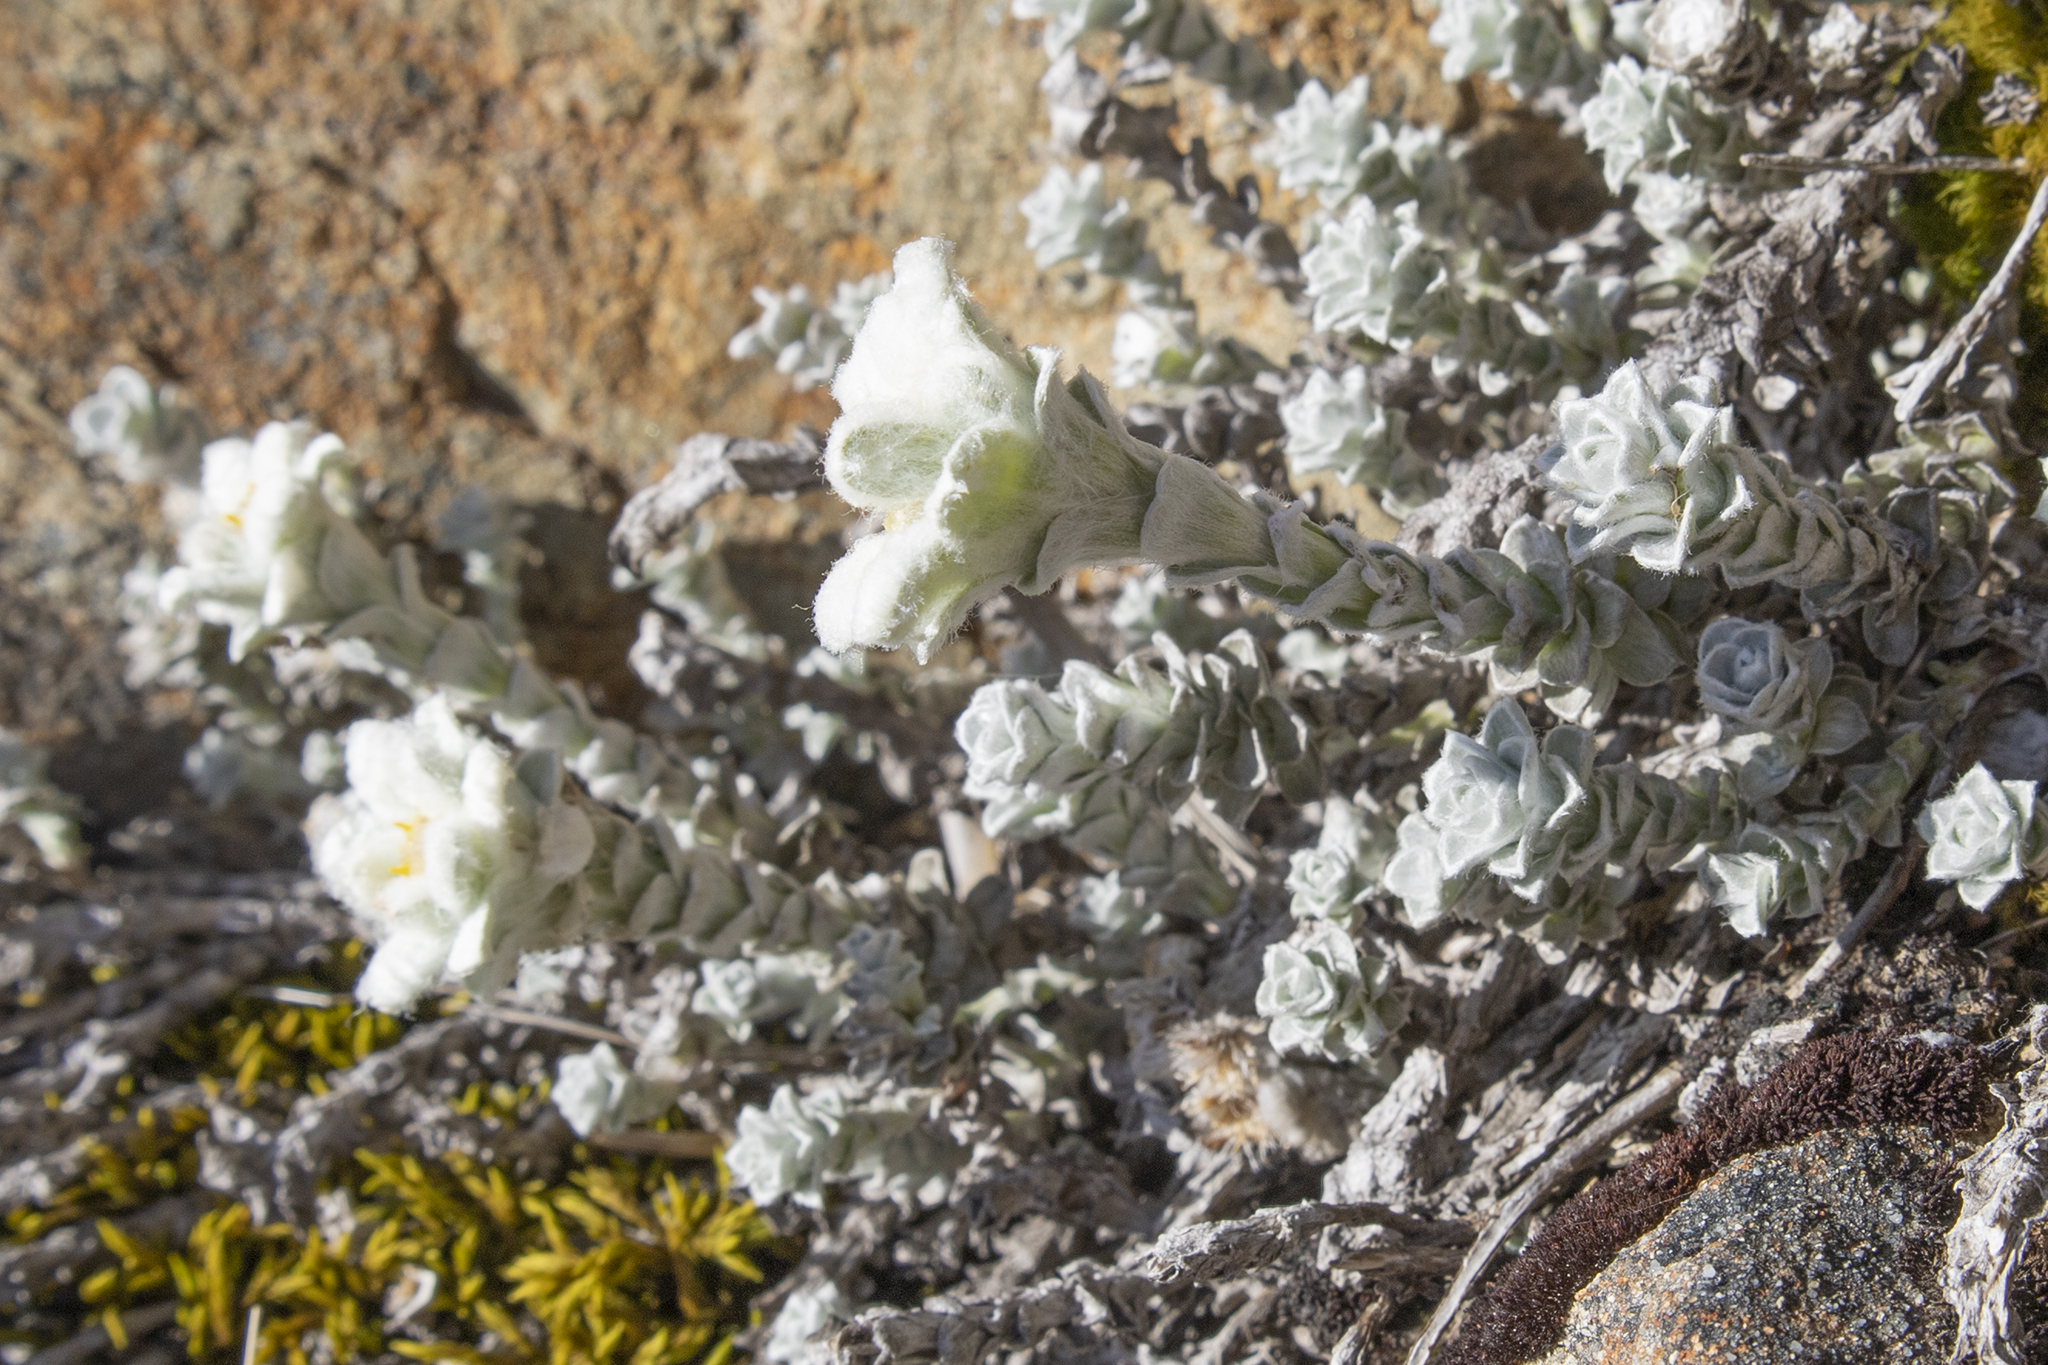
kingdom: Plantae
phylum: Tracheophyta
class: Magnoliopsida
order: Asterales
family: Asteraceae
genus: Leucogenes
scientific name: Leucogenes grandiceps
